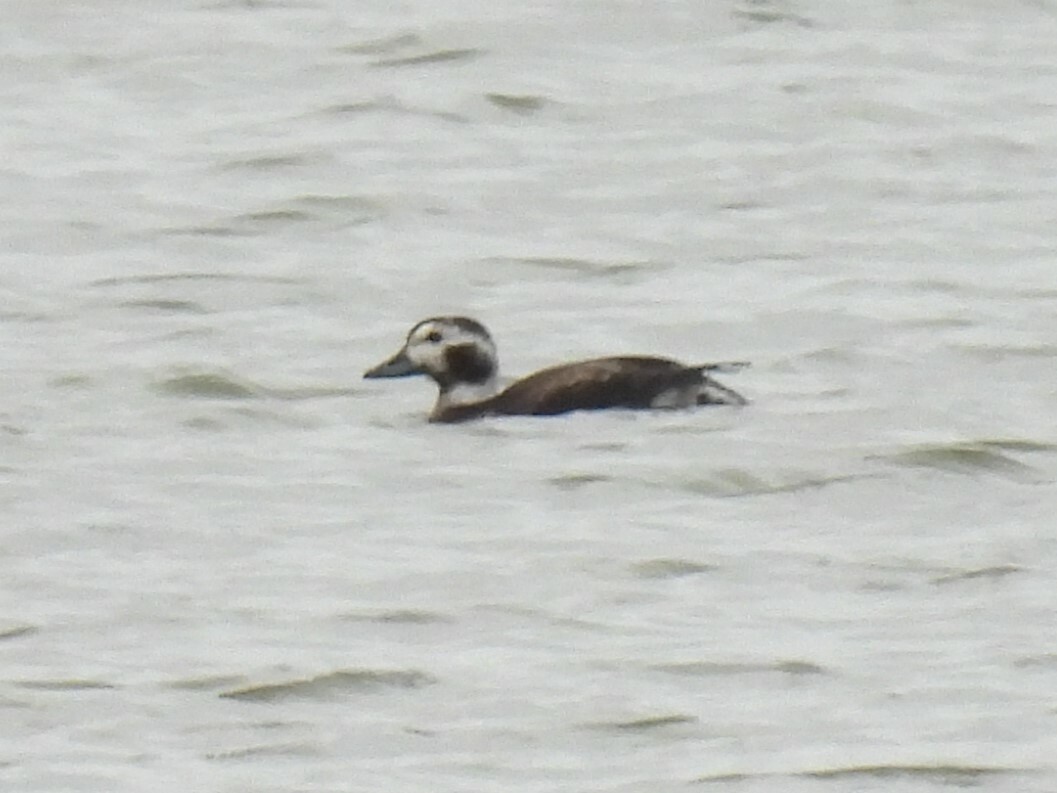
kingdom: Animalia
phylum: Chordata
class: Aves
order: Anseriformes
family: Anatidae
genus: Clangula
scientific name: Clangula hyemalis
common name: Long-tailed duck
